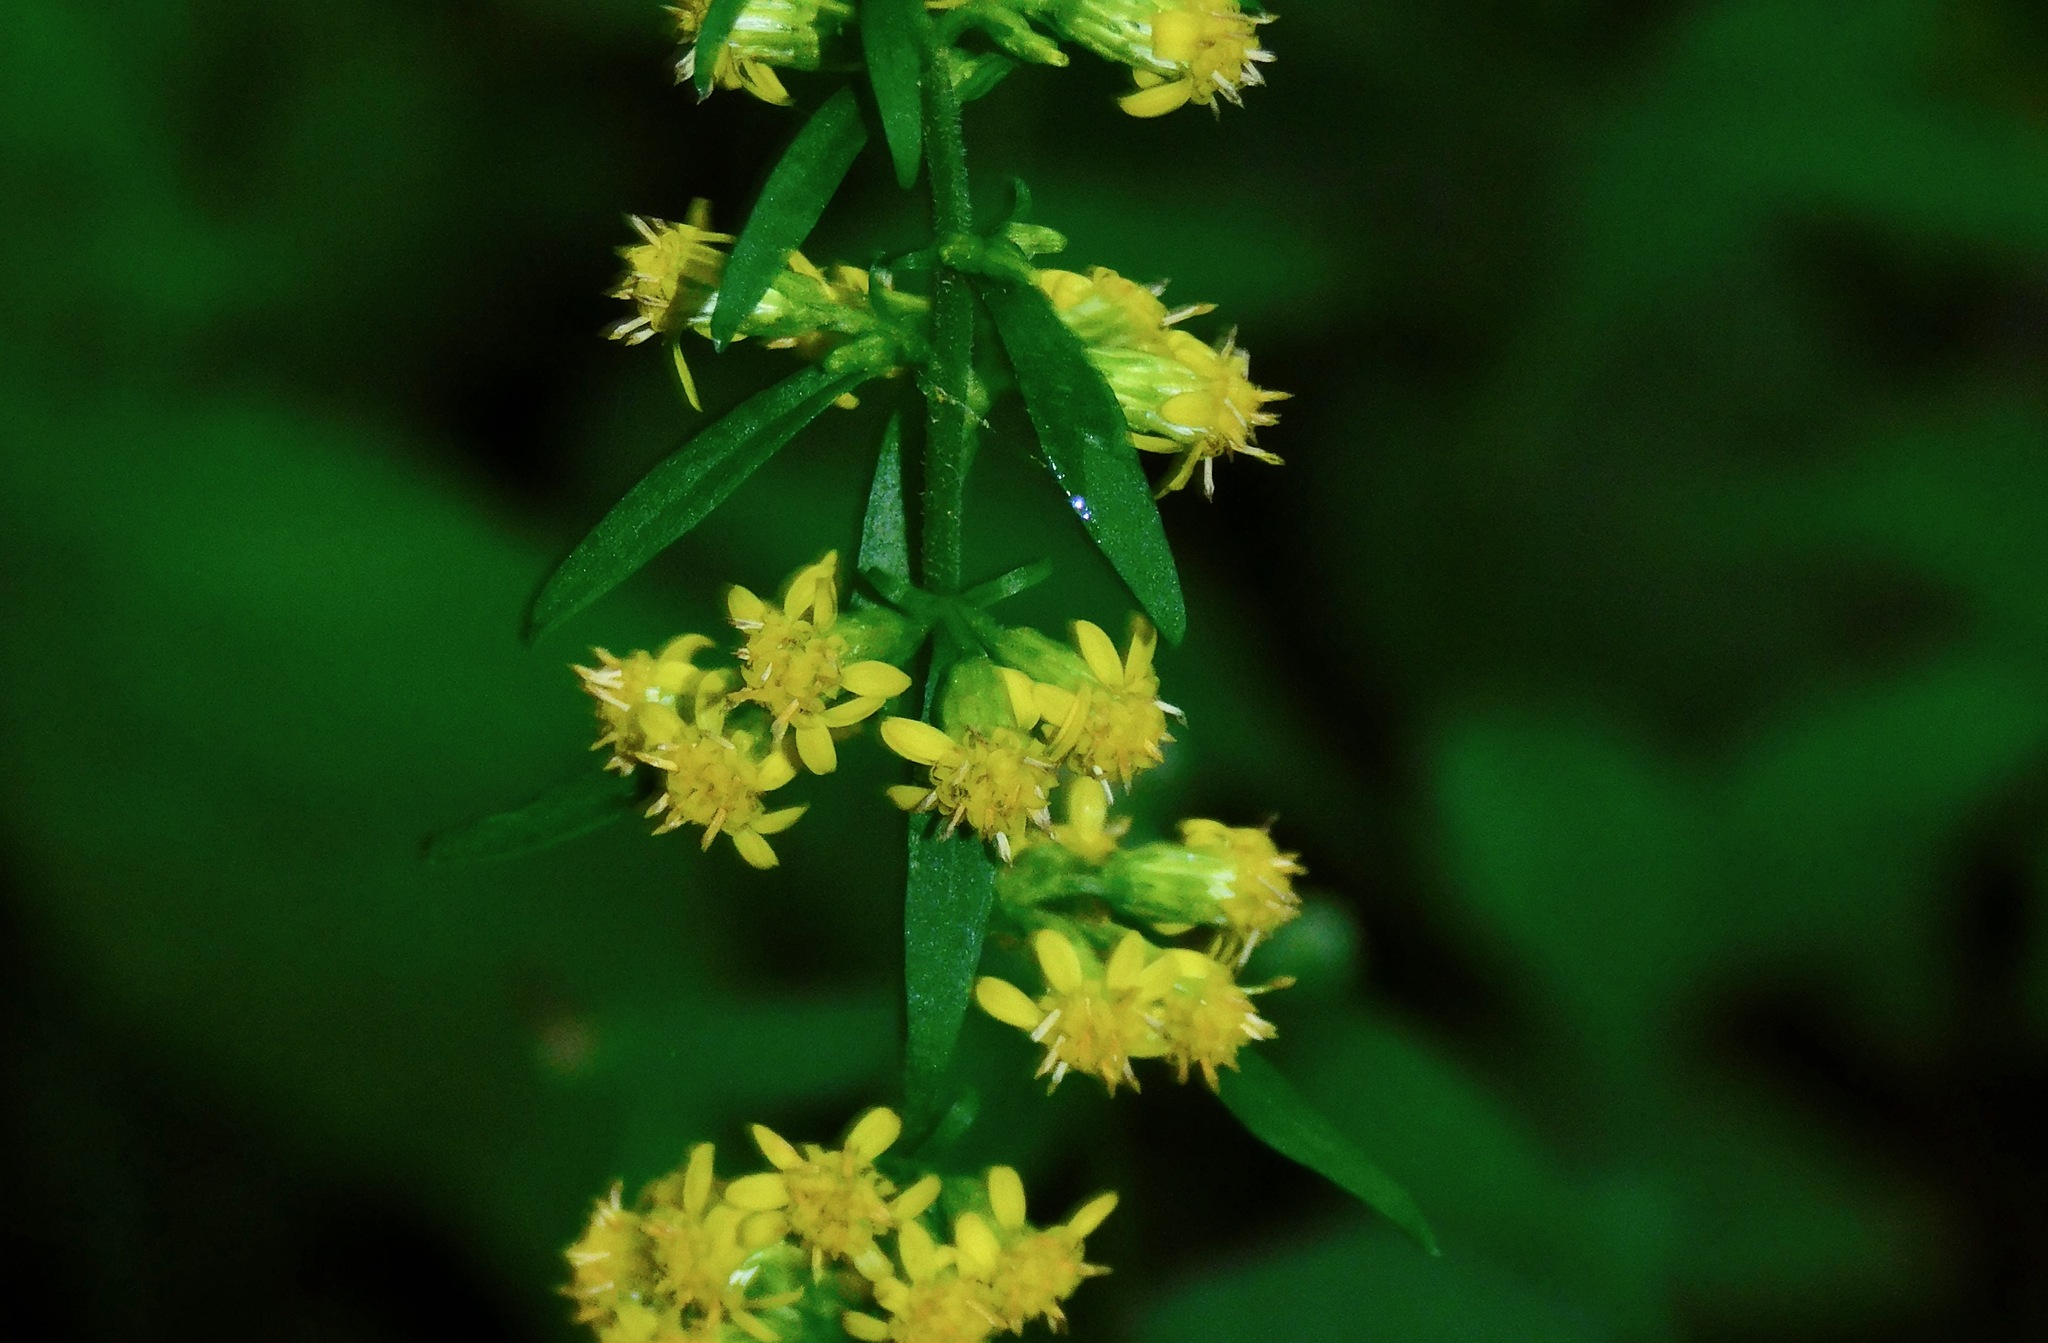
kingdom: Plantae
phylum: Tracheophyta
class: Magnoliopsida
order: Asterales
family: Asteraceae
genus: Solidago
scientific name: Solidago hispida
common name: Hairy goldenrod
